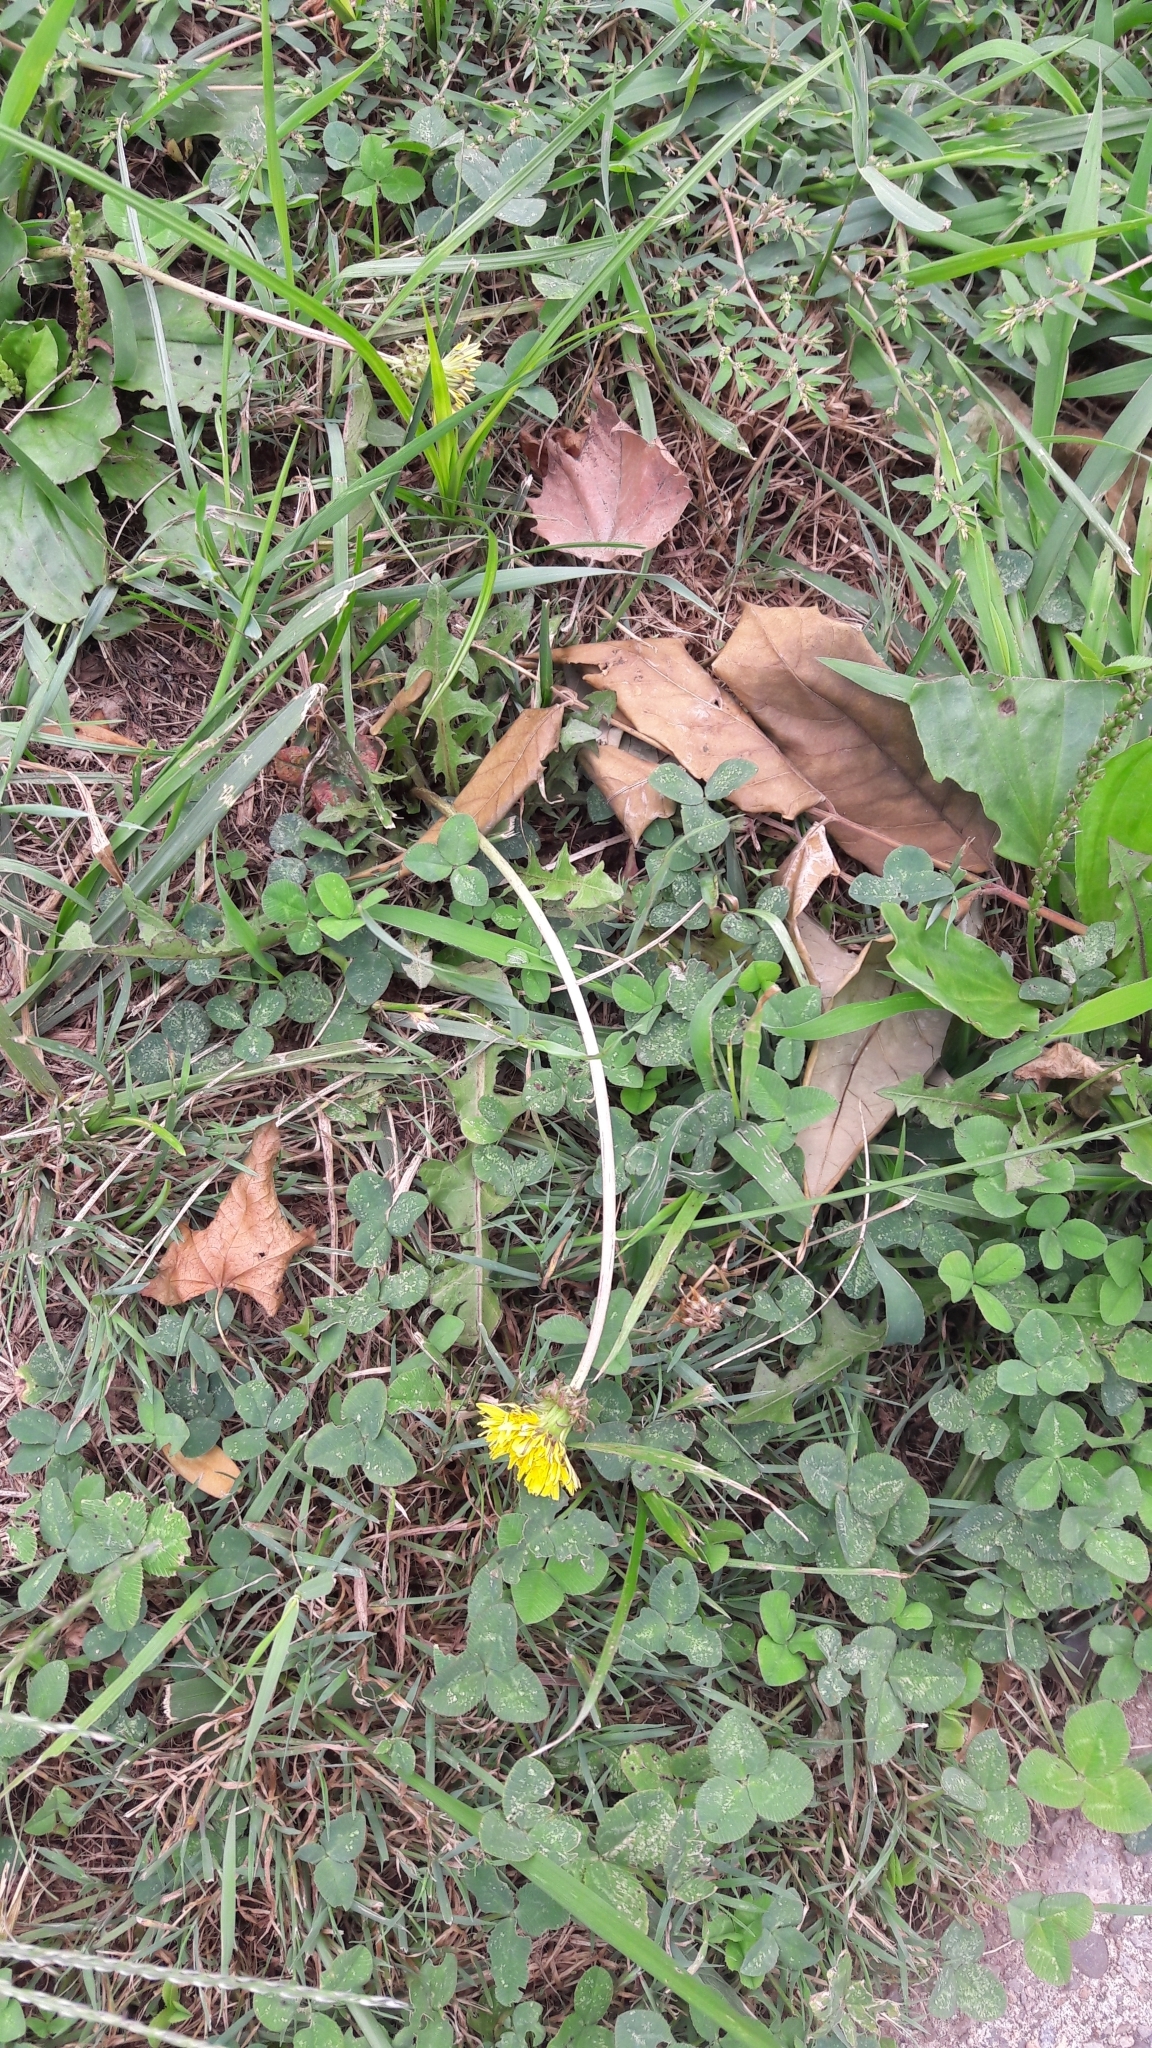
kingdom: Plantae
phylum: Tracheophyta
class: Magnoliopsida
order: Asterales
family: Asteraceae
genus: Taraxacum
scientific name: Taraxacum
